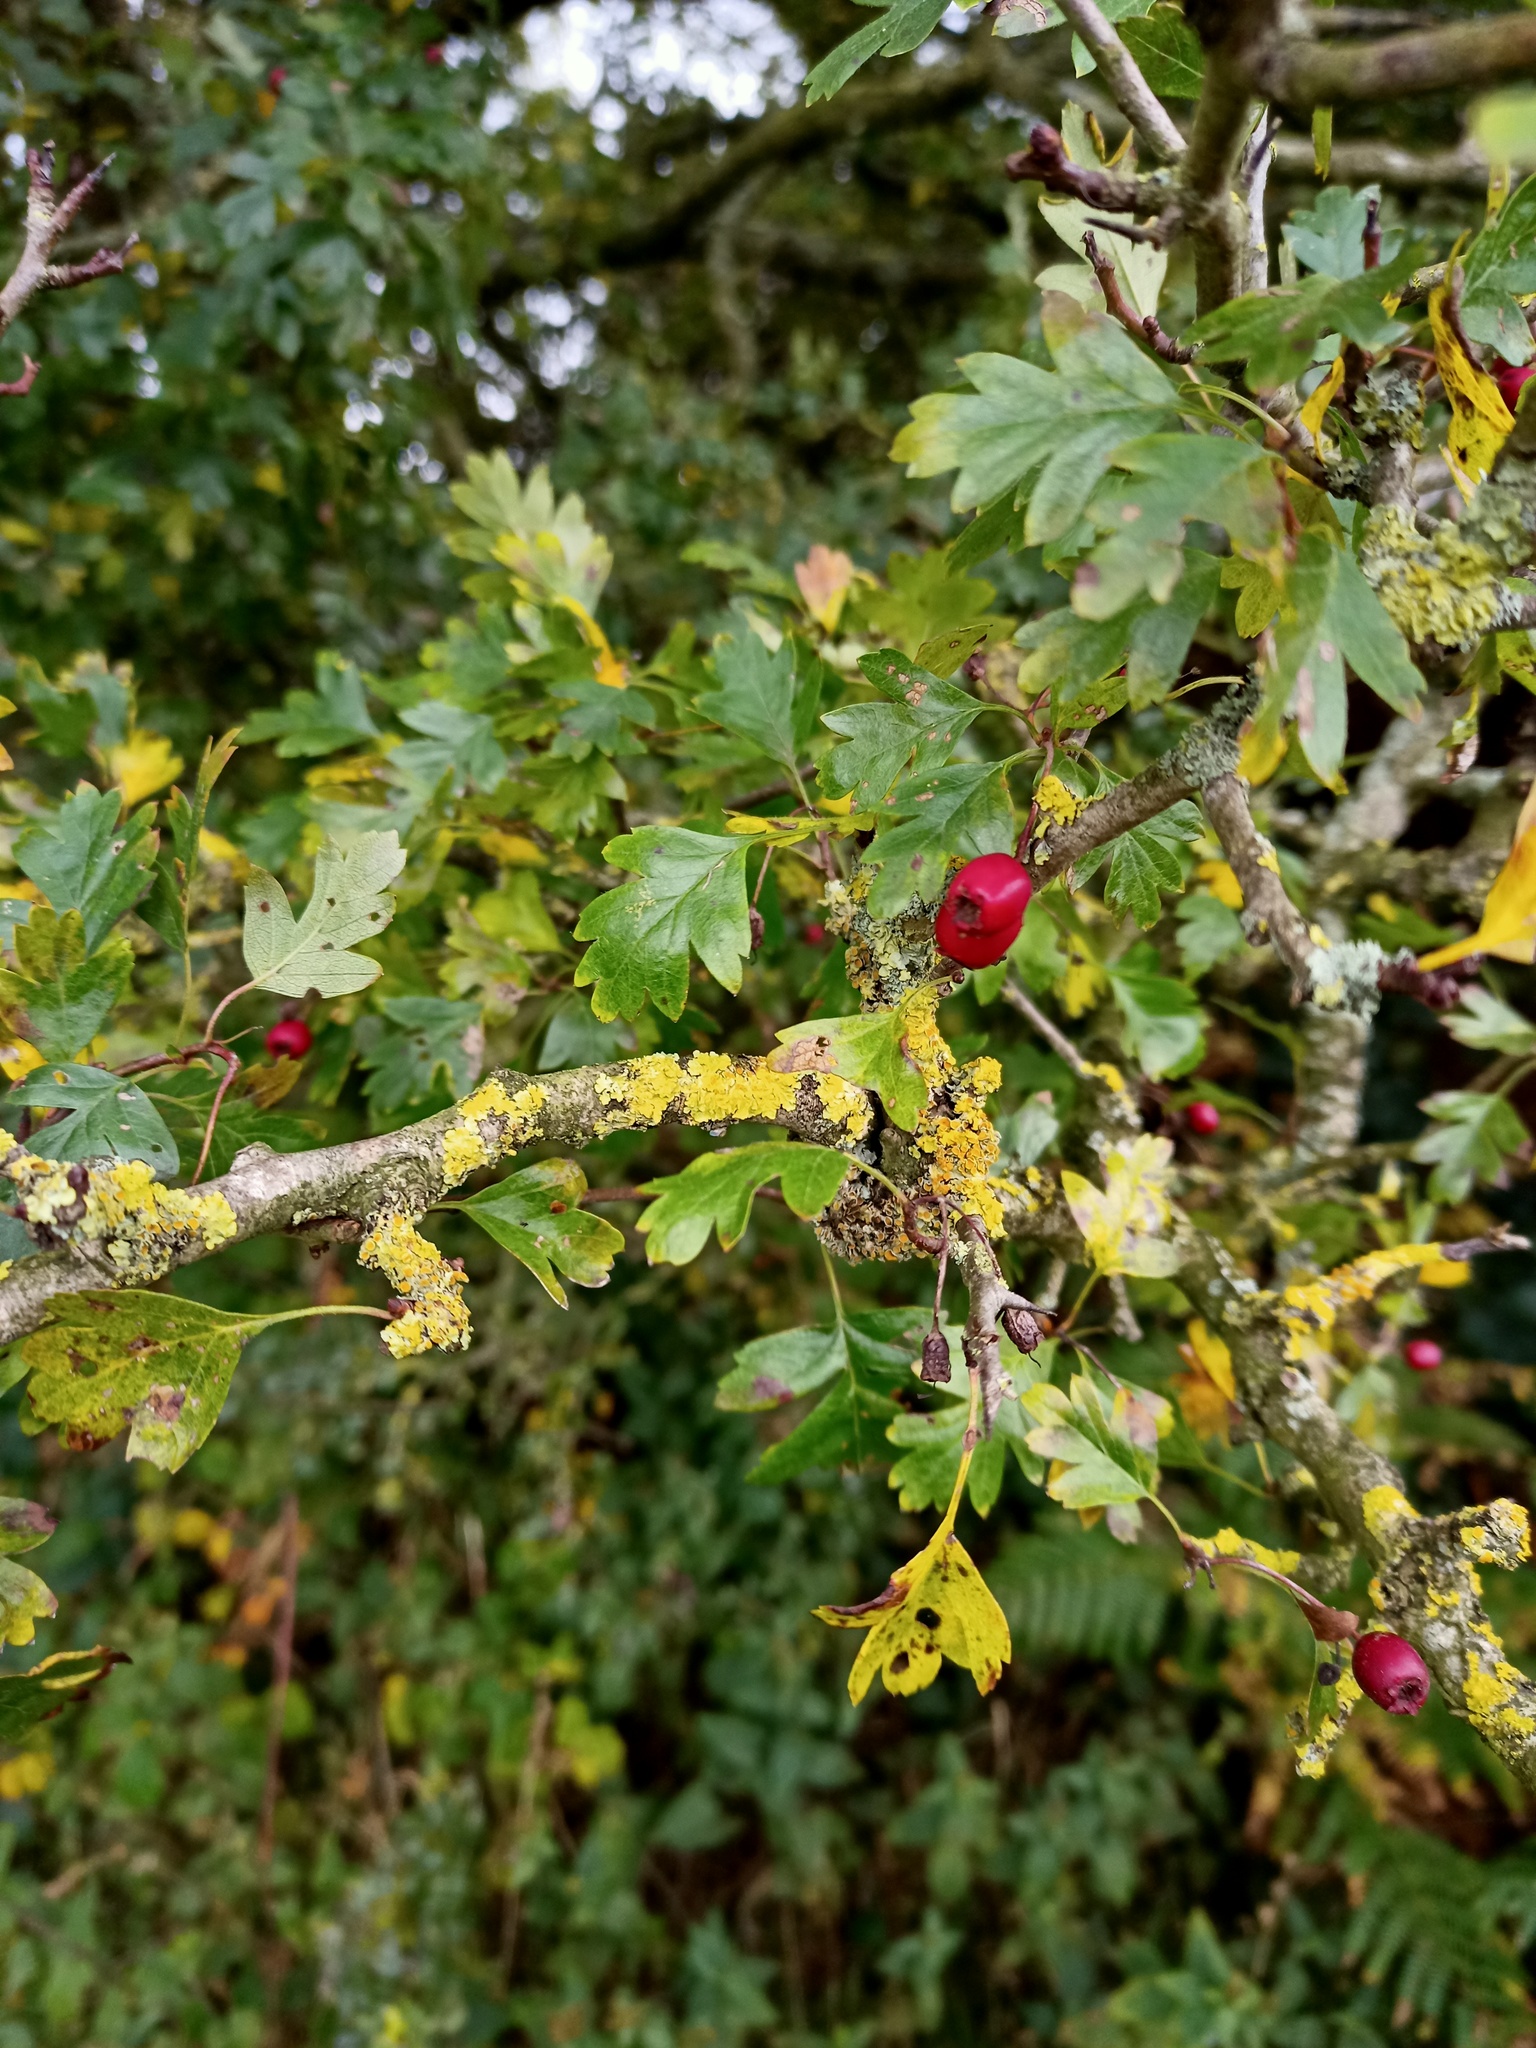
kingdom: Plantae
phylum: Tracheophyta
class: Magnoliopsida
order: Rosales
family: Rosaceae
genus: Crataegus
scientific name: Crataegus monogyna
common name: Hawthorn
